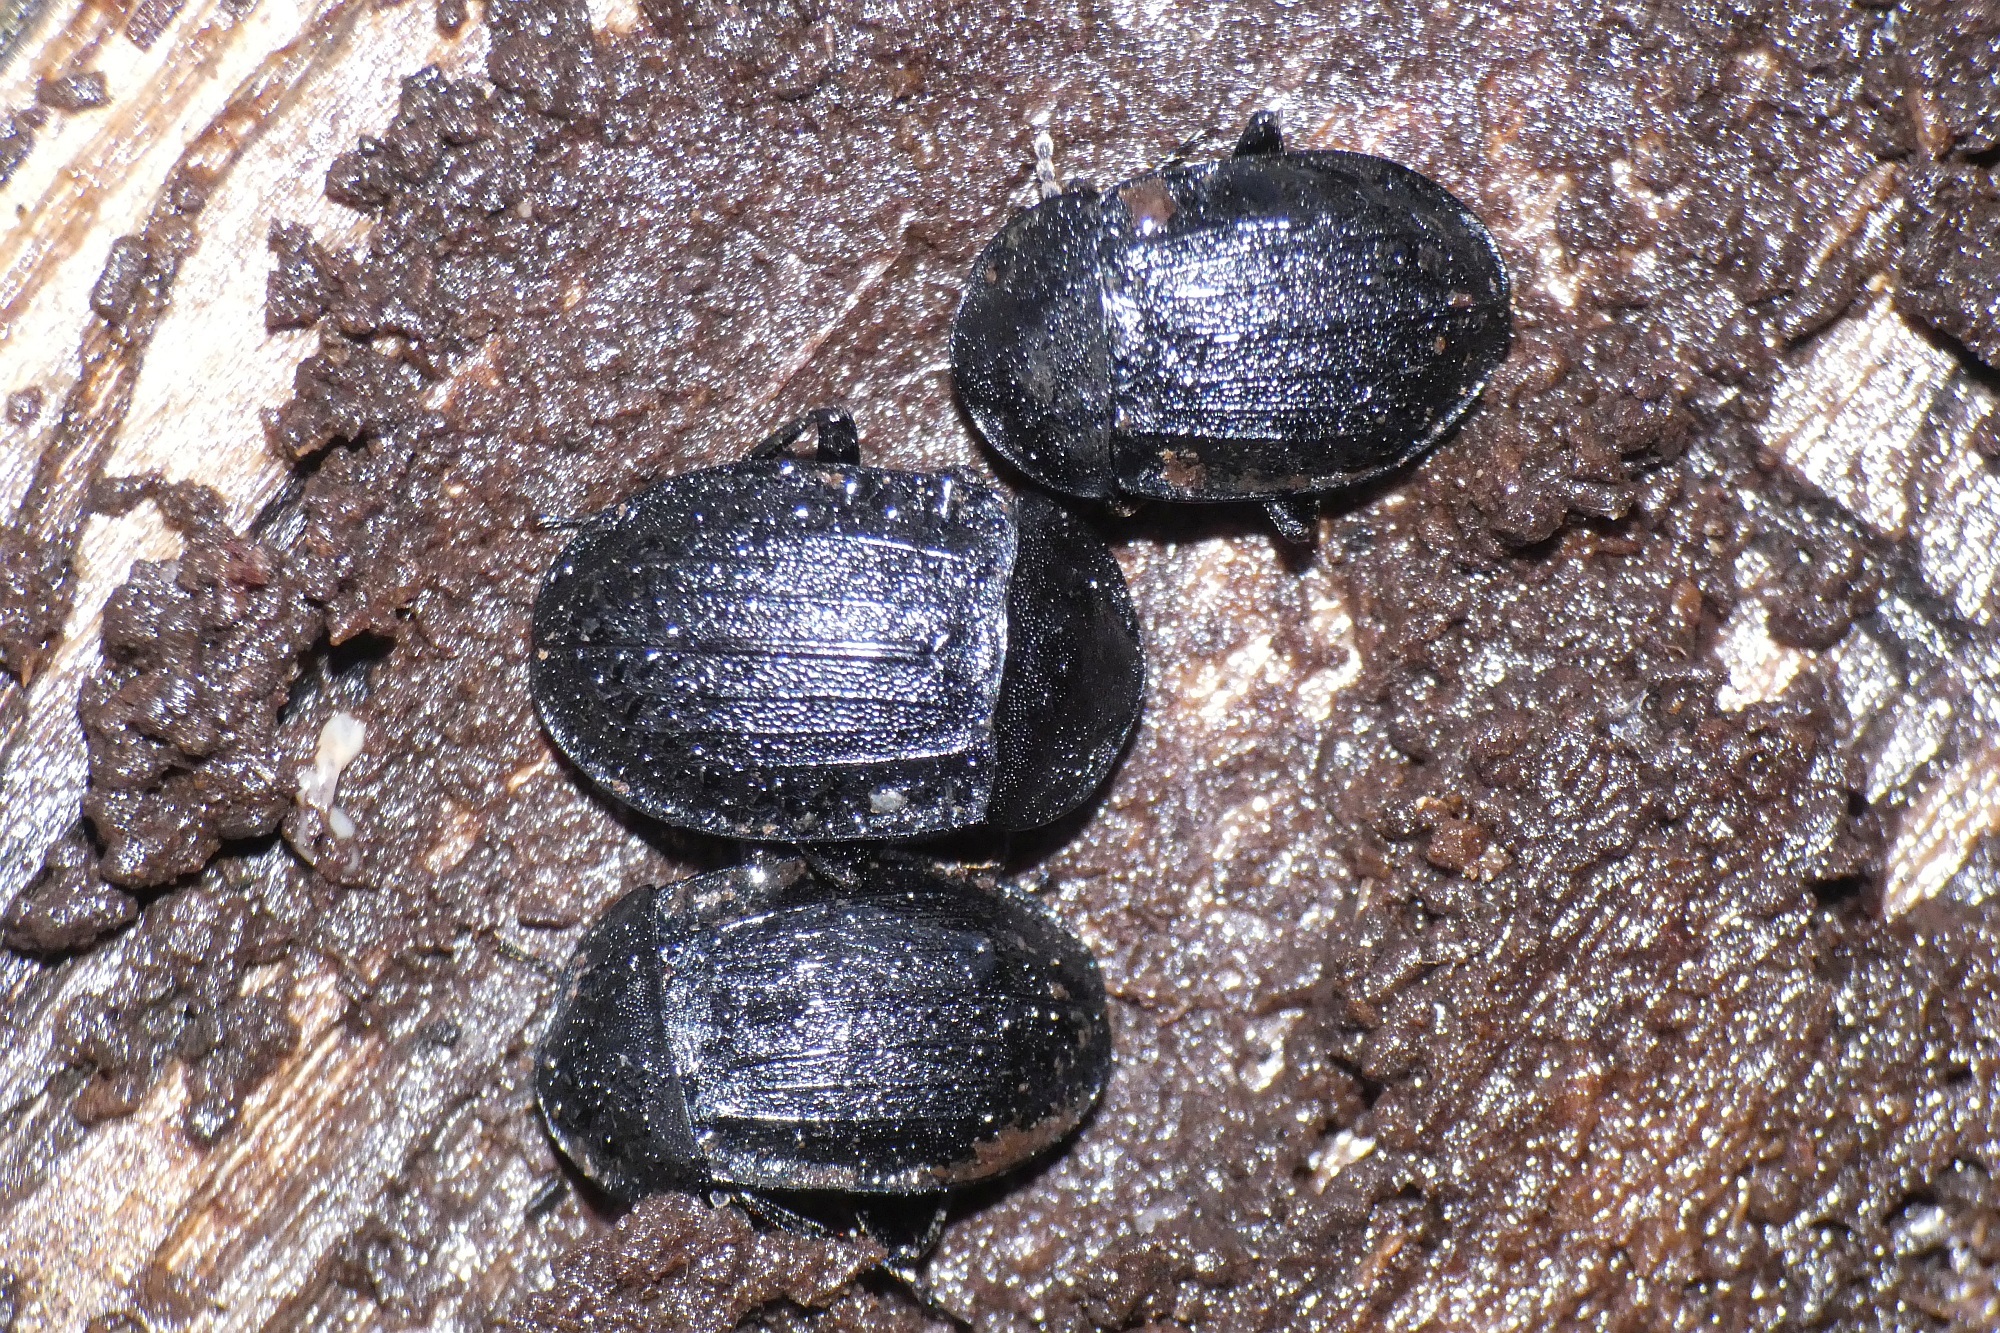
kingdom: Animalia
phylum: Arthropoda
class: Insecta
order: Coleoptera
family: Staphylinidae
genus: Silpha
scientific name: Silpha atrata
